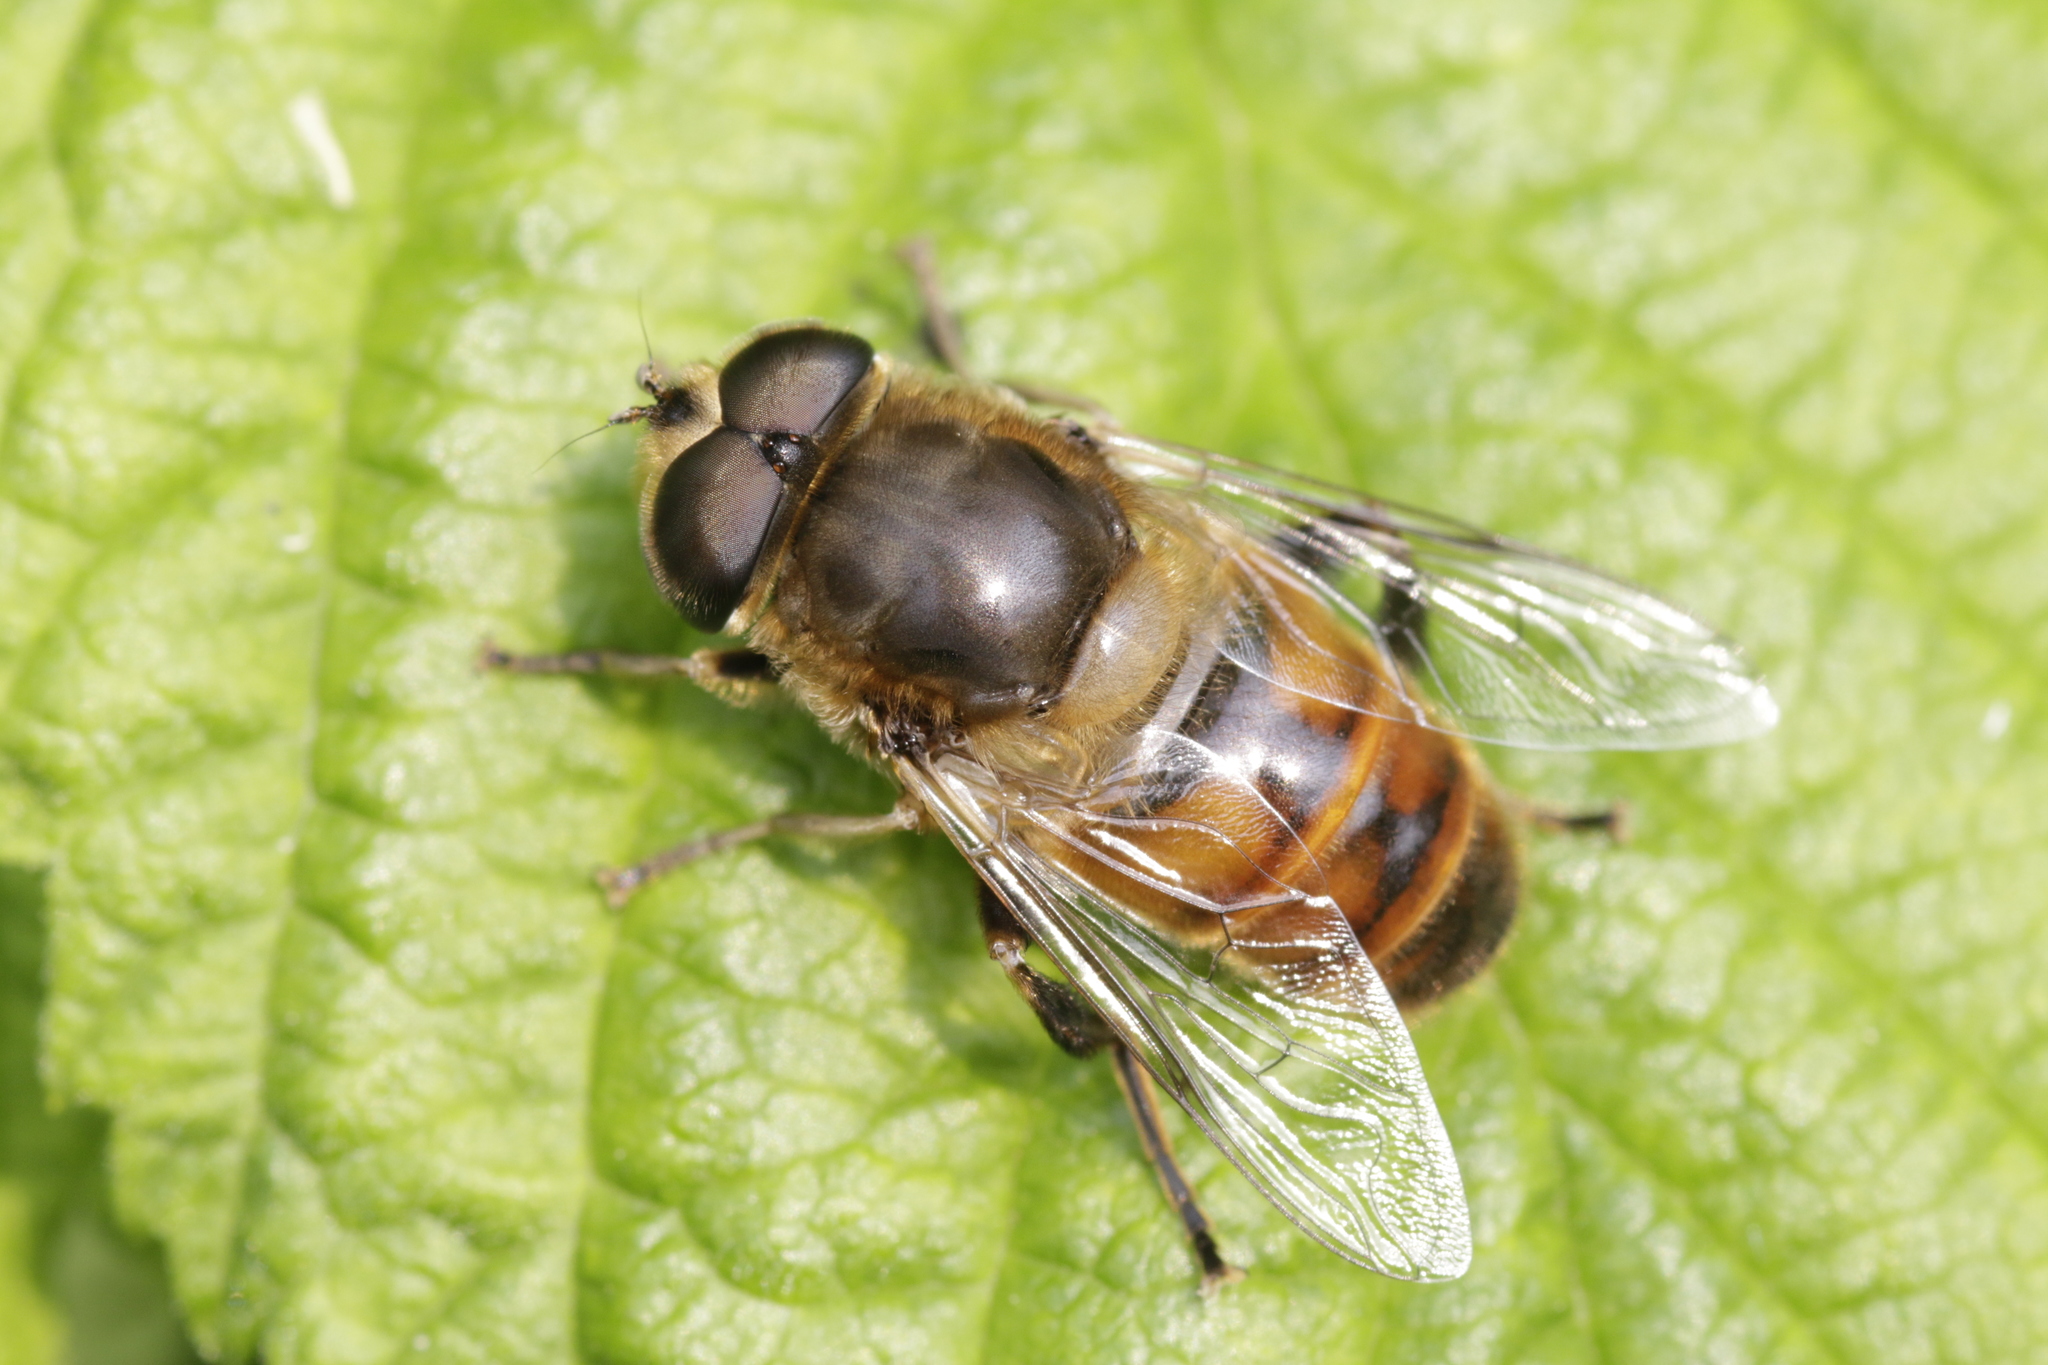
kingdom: Animalia
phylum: Arthropoda
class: Insecta
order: Diptera
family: Syrphidae
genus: Eristalis
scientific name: Eristalis tenax
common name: Drone fly
